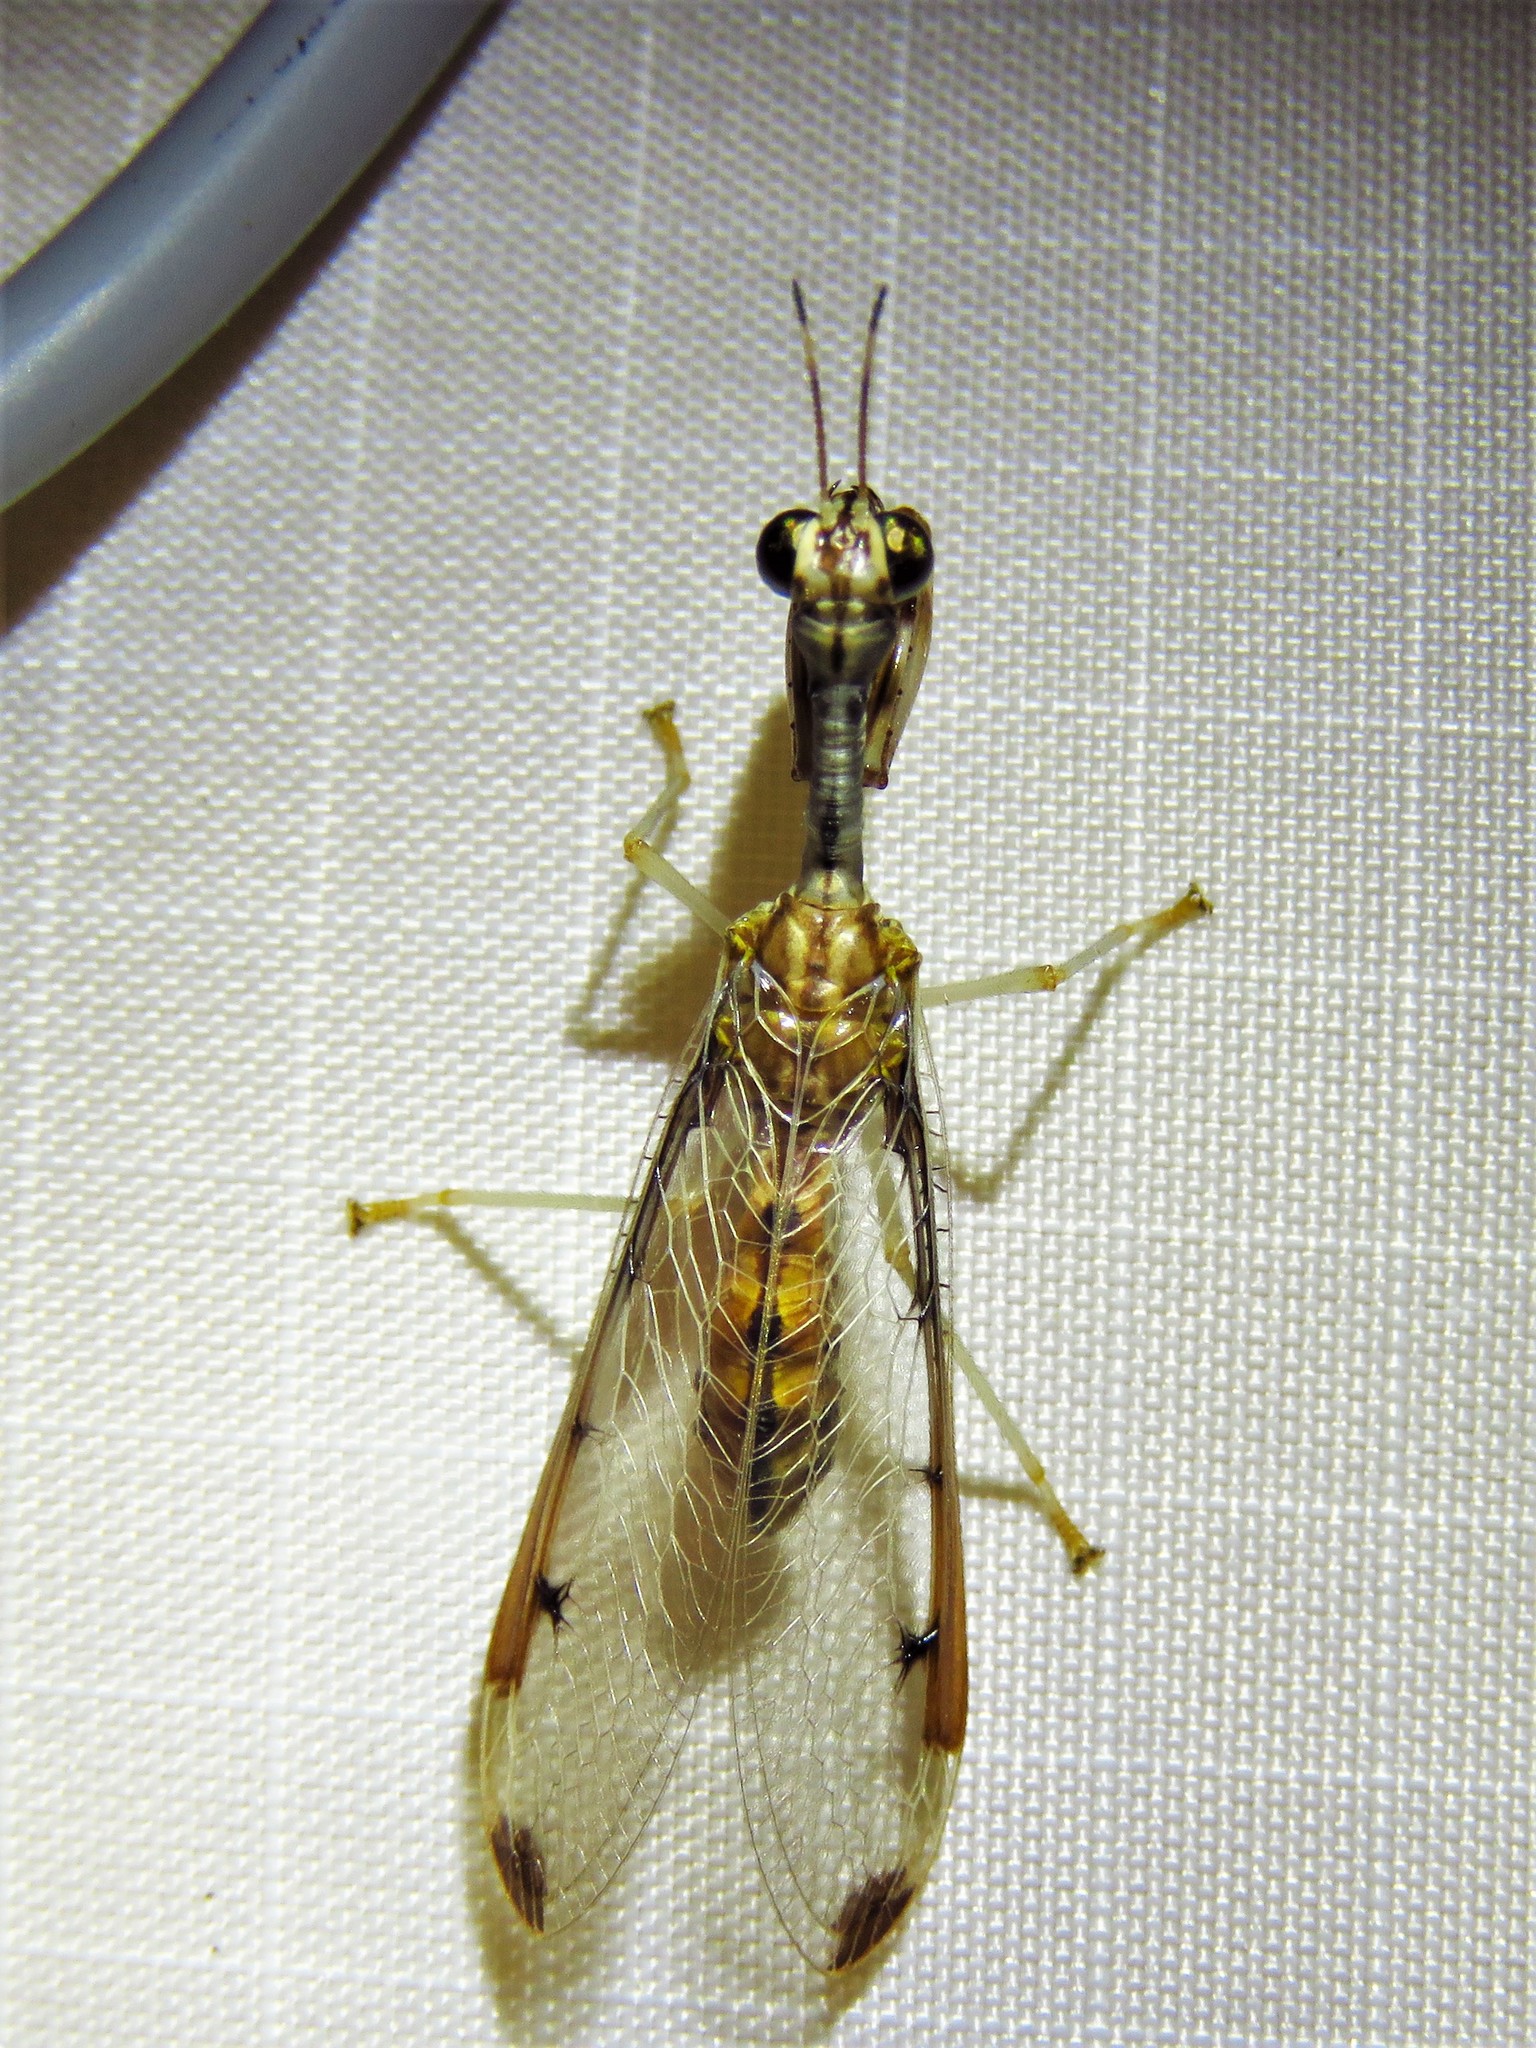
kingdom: Animalia
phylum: Arthropoda
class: Insecta
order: Neuroptera
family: Mantispidae
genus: Dicromantispa
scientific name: Dicromantispa interrupta
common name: Four-spotted mantidfly
